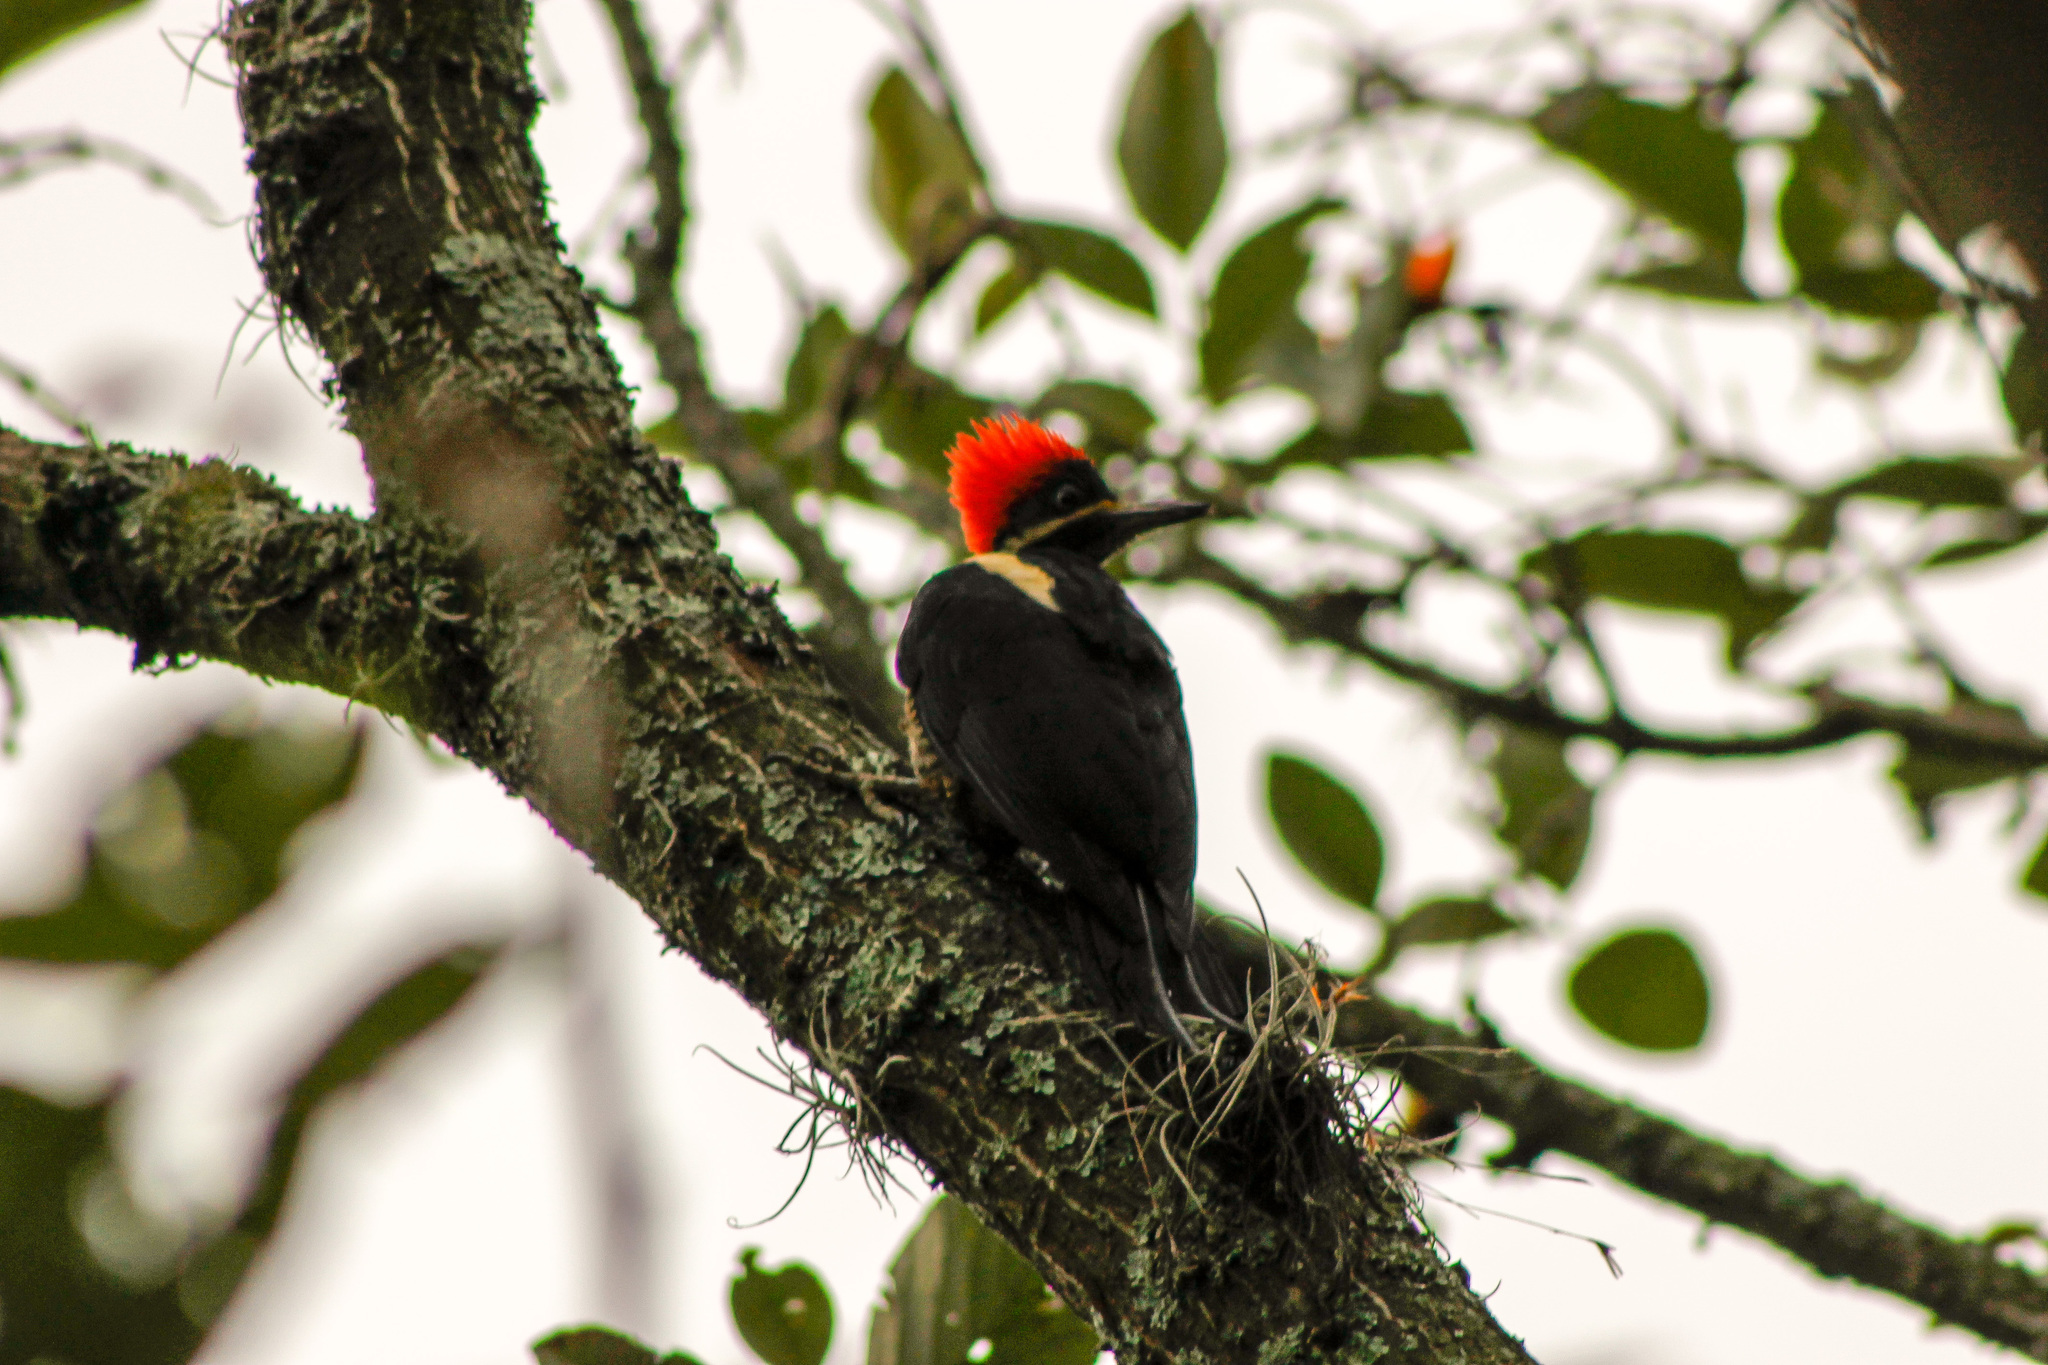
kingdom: Animalia
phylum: Chordata
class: Aves
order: Piciformes
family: Picidae
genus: Dryocopus
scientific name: Dryocopus lineatus
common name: Lineated woodpecker
